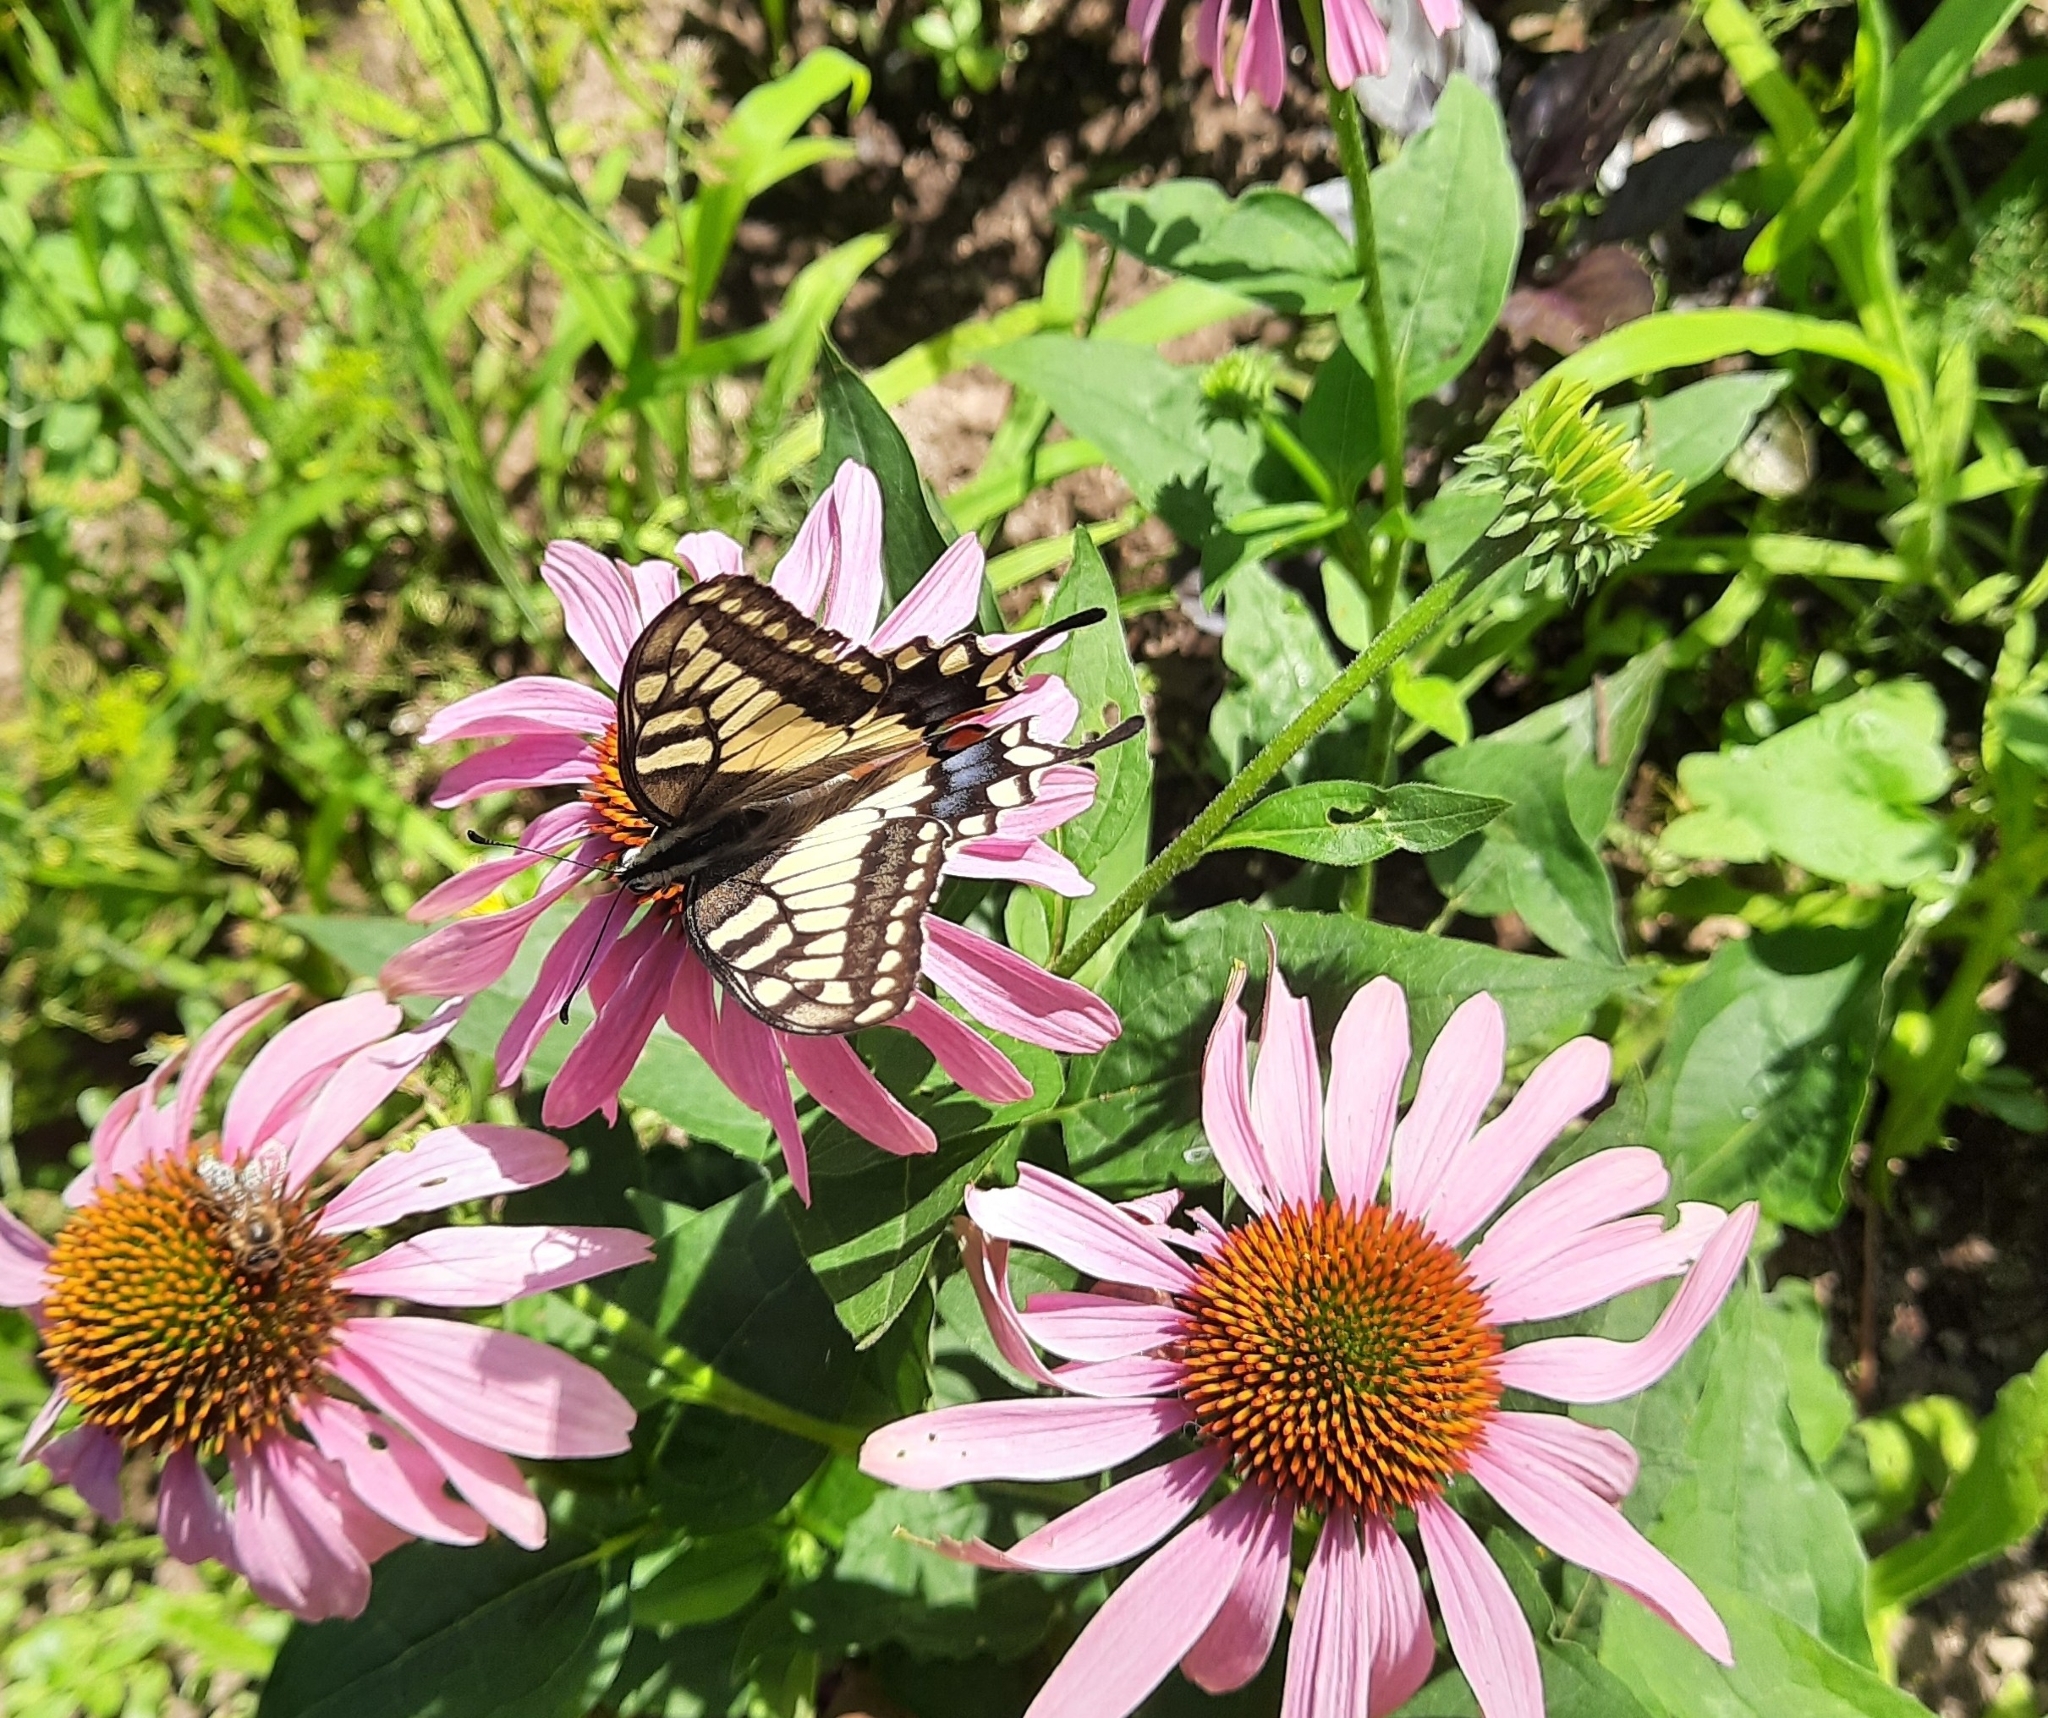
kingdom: Animalia
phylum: Arthropoda
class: Insecta
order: Lepidoptera
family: Papilionidae
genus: Papilio
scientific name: Papilio machaon
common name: Swallowtail
